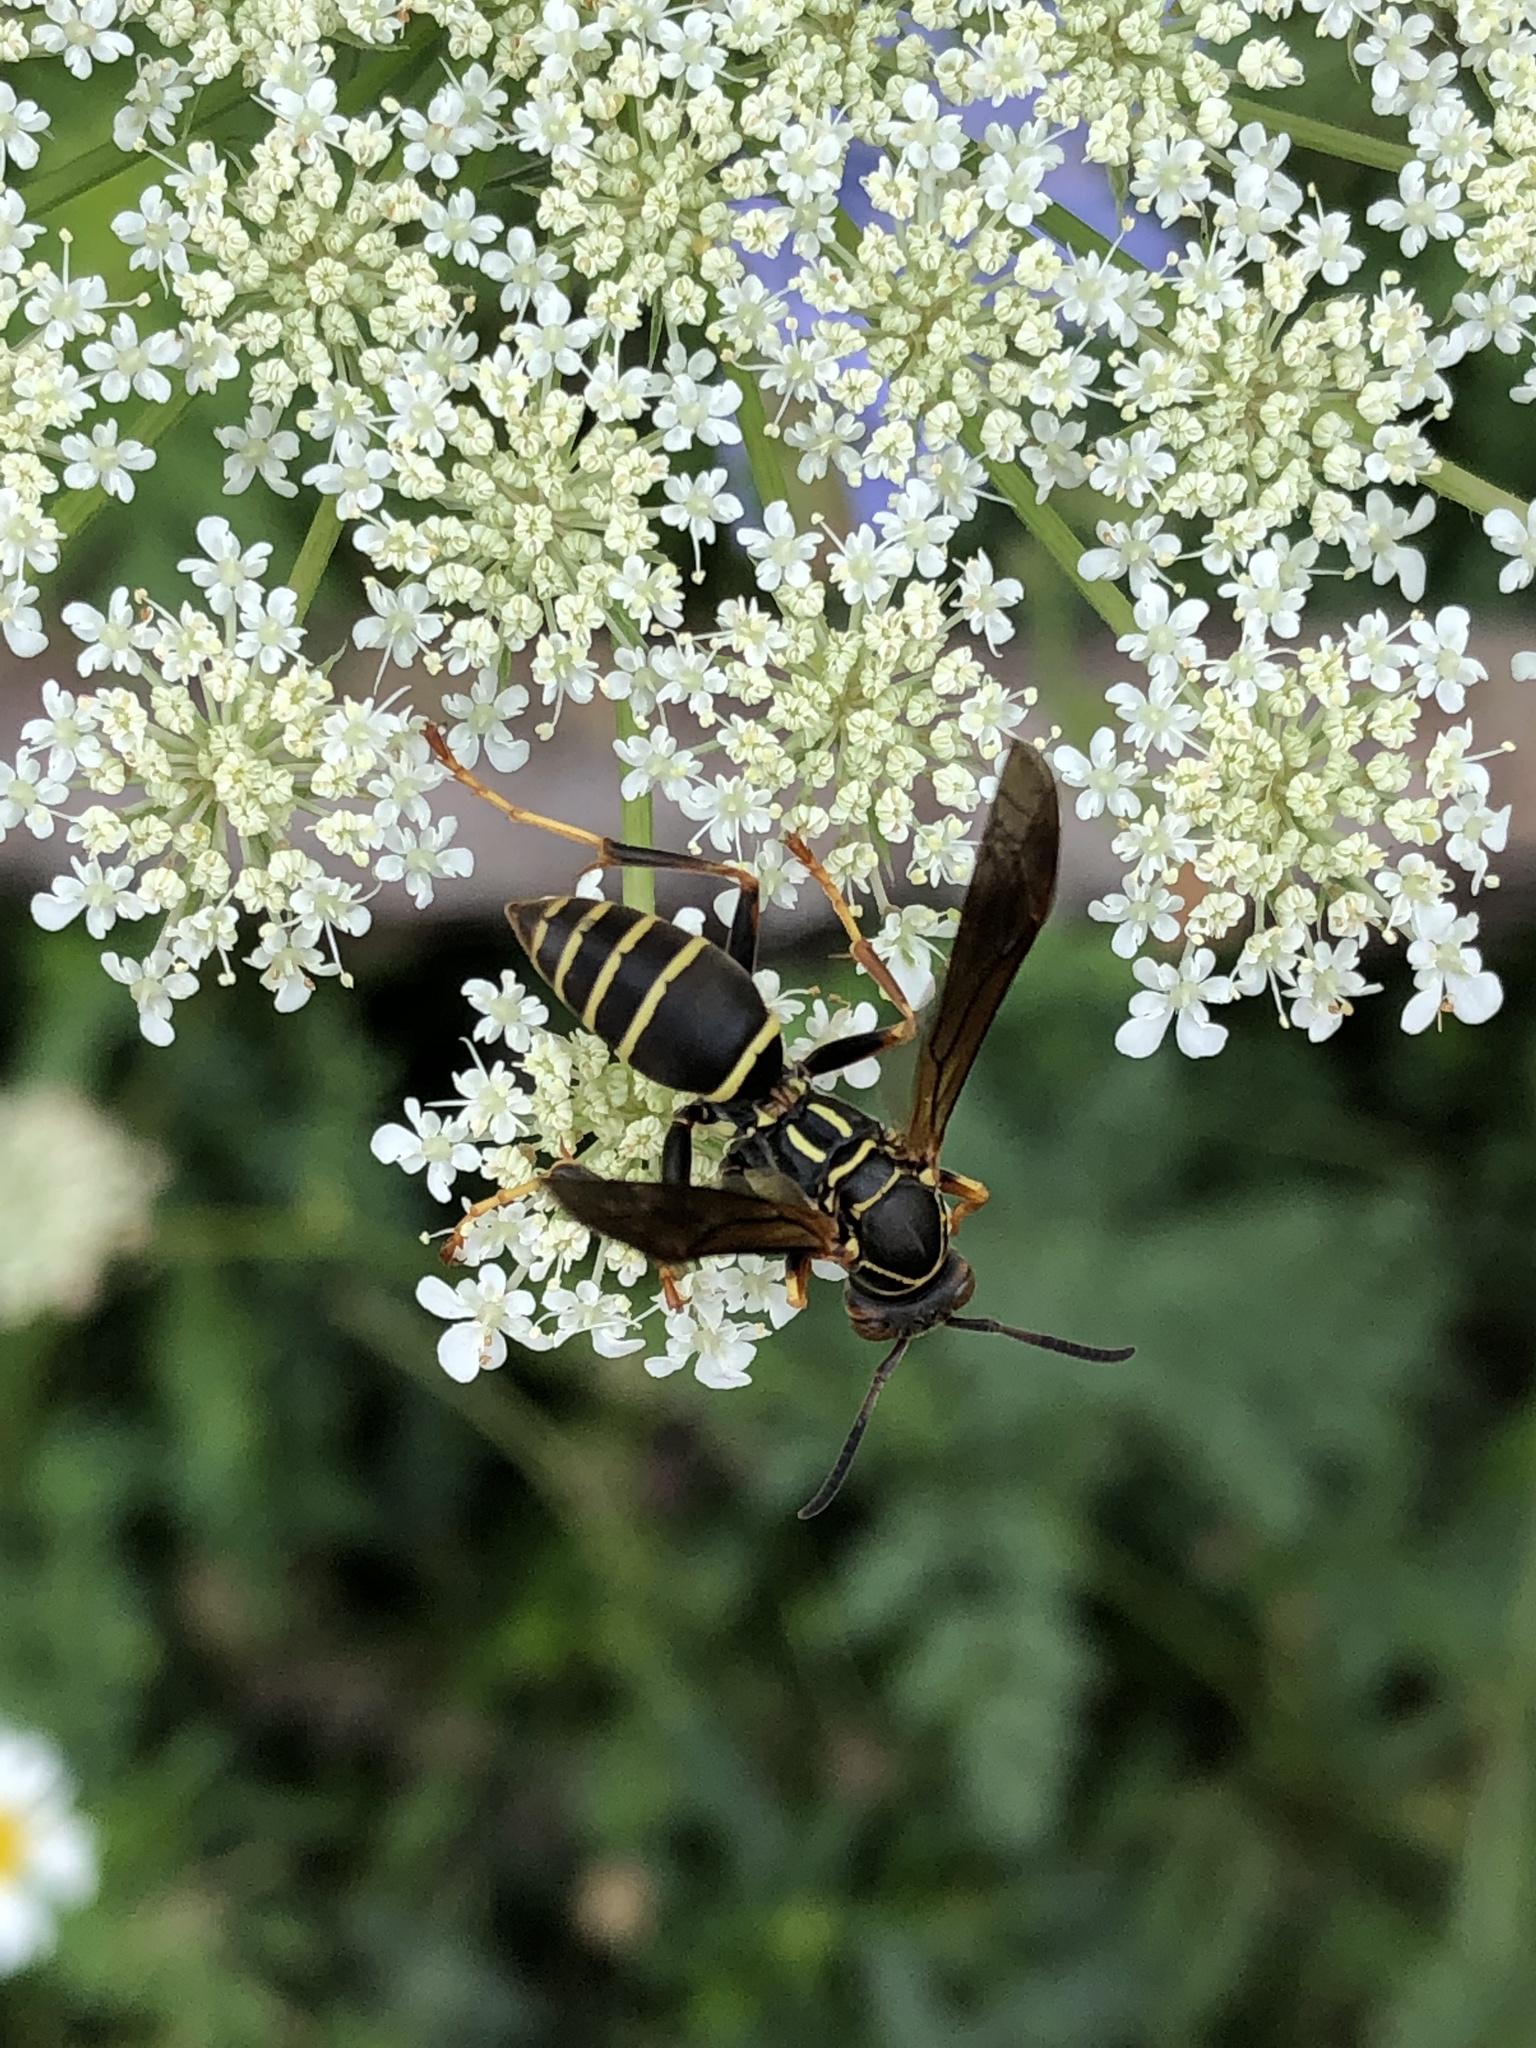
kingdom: Animalia
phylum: Arthropoda
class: Insecta
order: Hymenoptera
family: Eumenidae
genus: Polistes
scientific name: Polistes fuscatus
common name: Dark paper wasp
